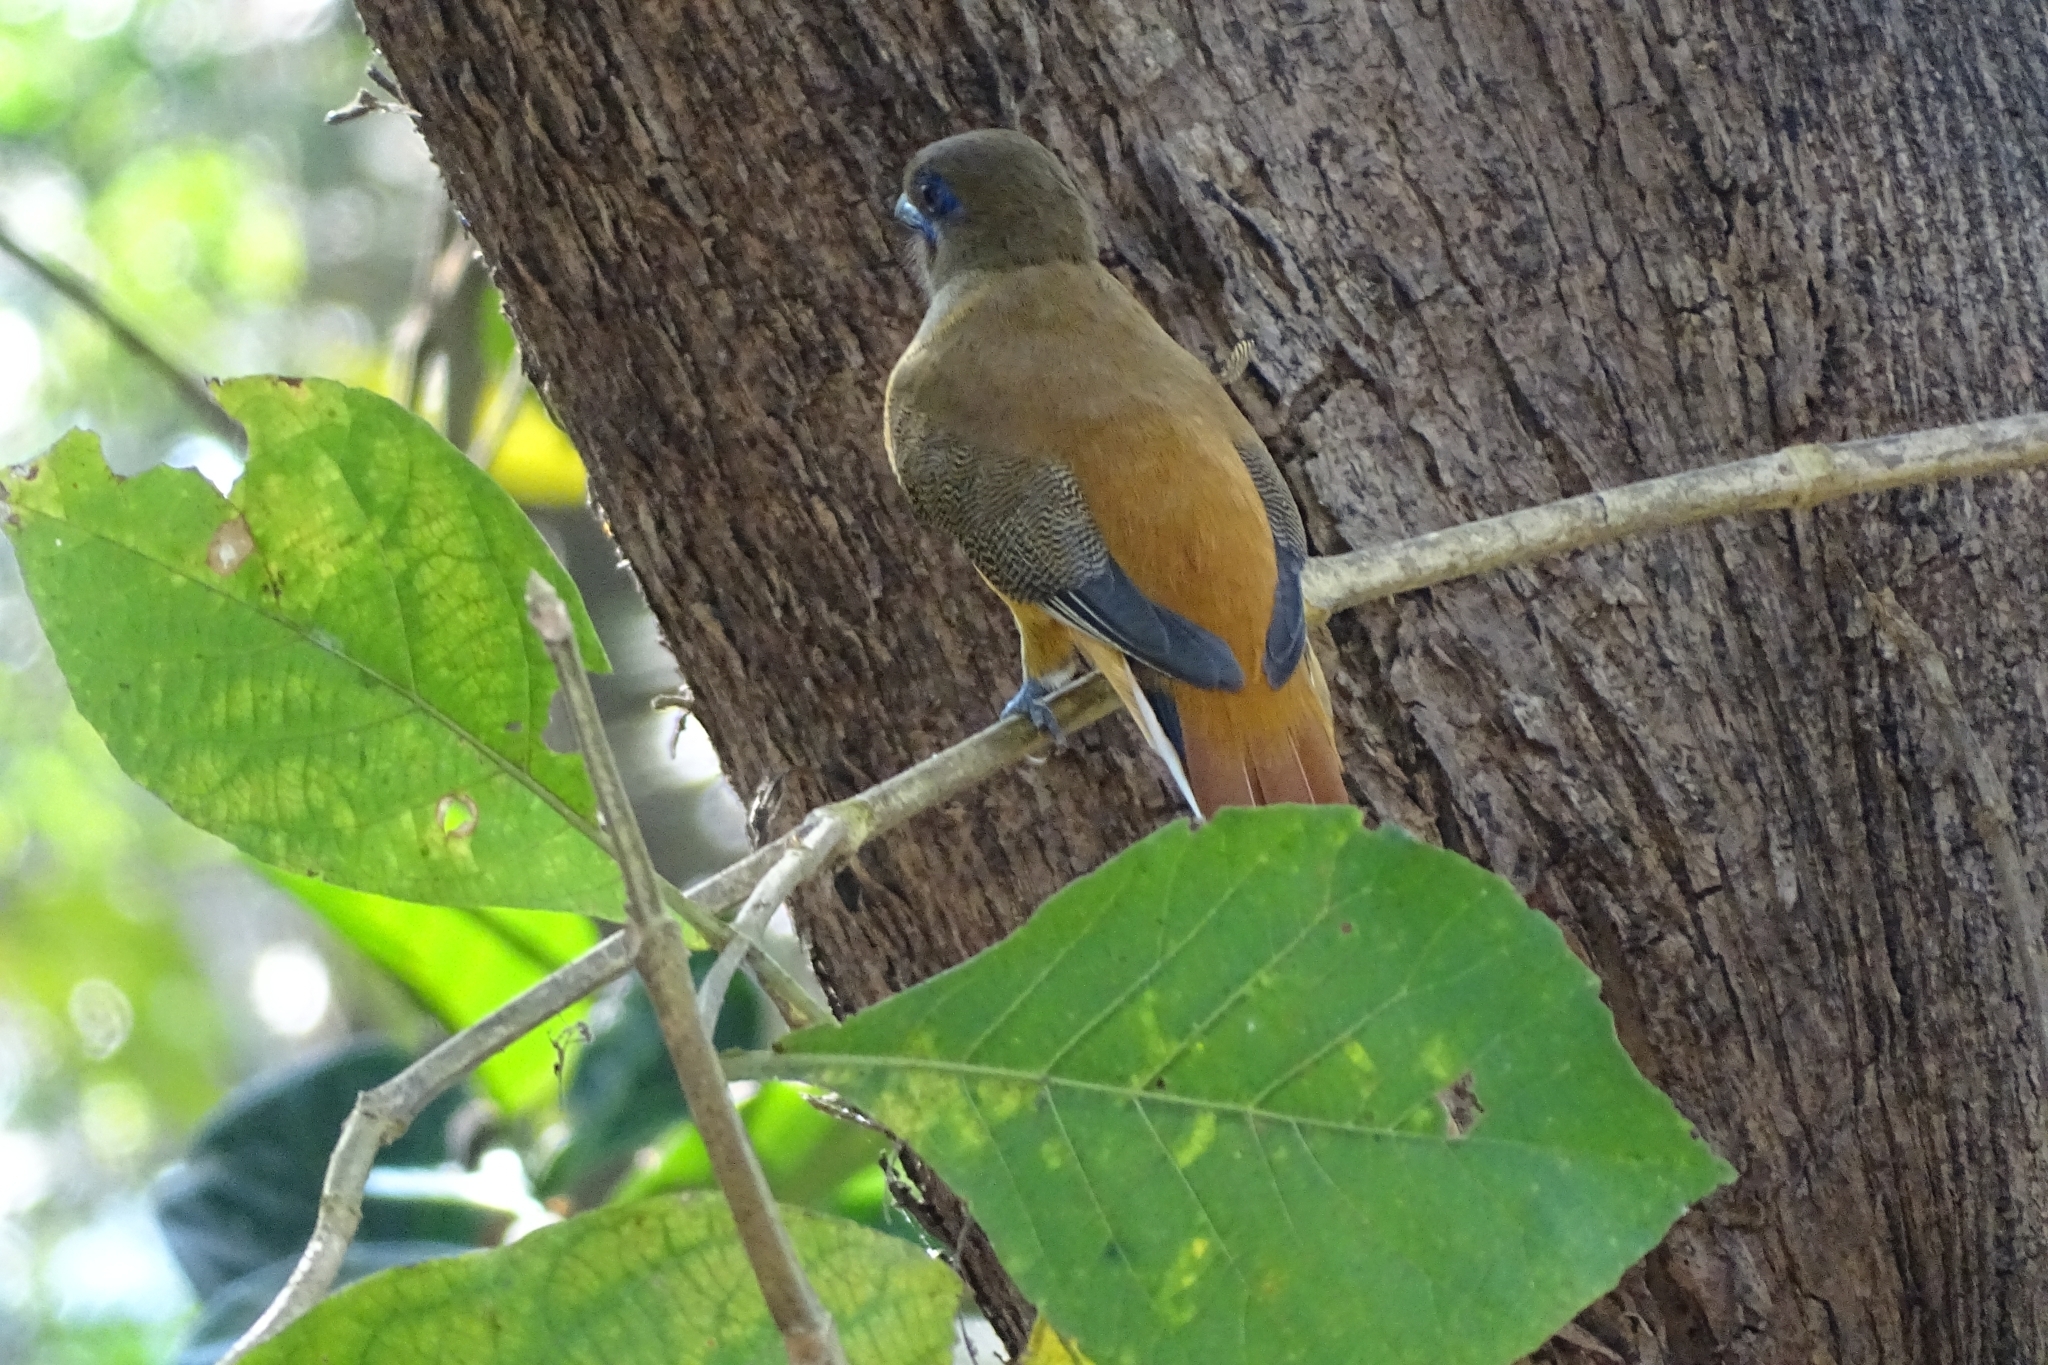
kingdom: Animalia
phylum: Chordata
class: Aves
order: Trogoniformes
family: Trogonidae
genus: Harpactes
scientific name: Harpactes fasciatus
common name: Malabar trogon
